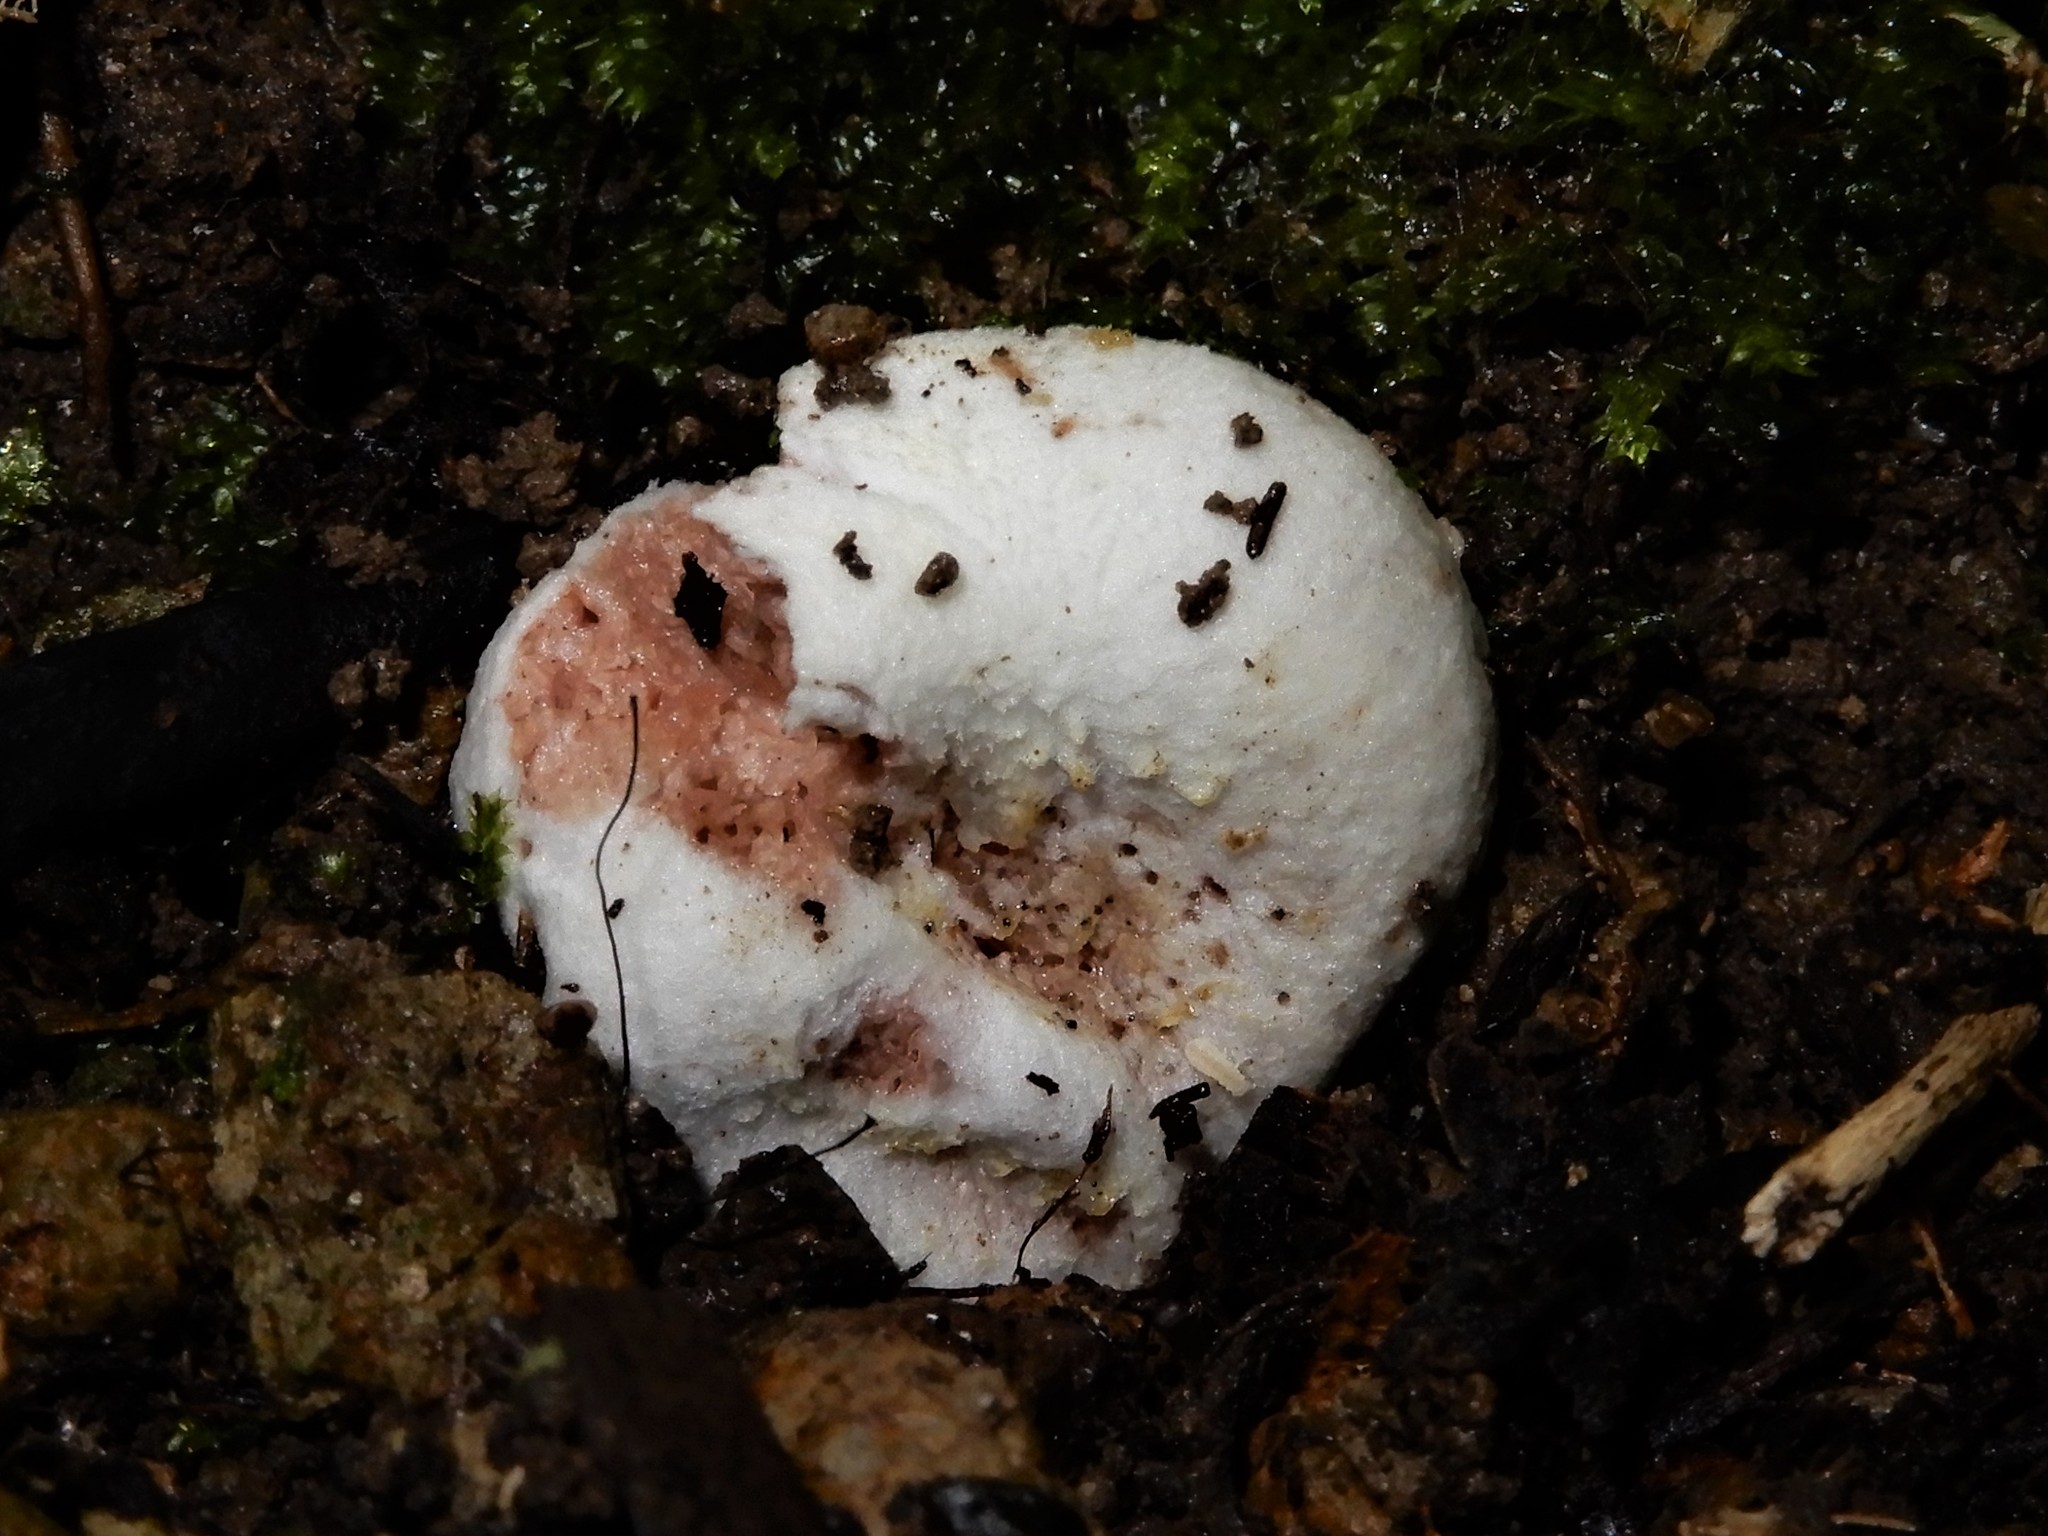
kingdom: Fungi
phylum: Basidiomycota
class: Agaricomycetes
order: Agaricales
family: Entolomataceae
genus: Entoloma
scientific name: Entoloma gasteromycetoides
